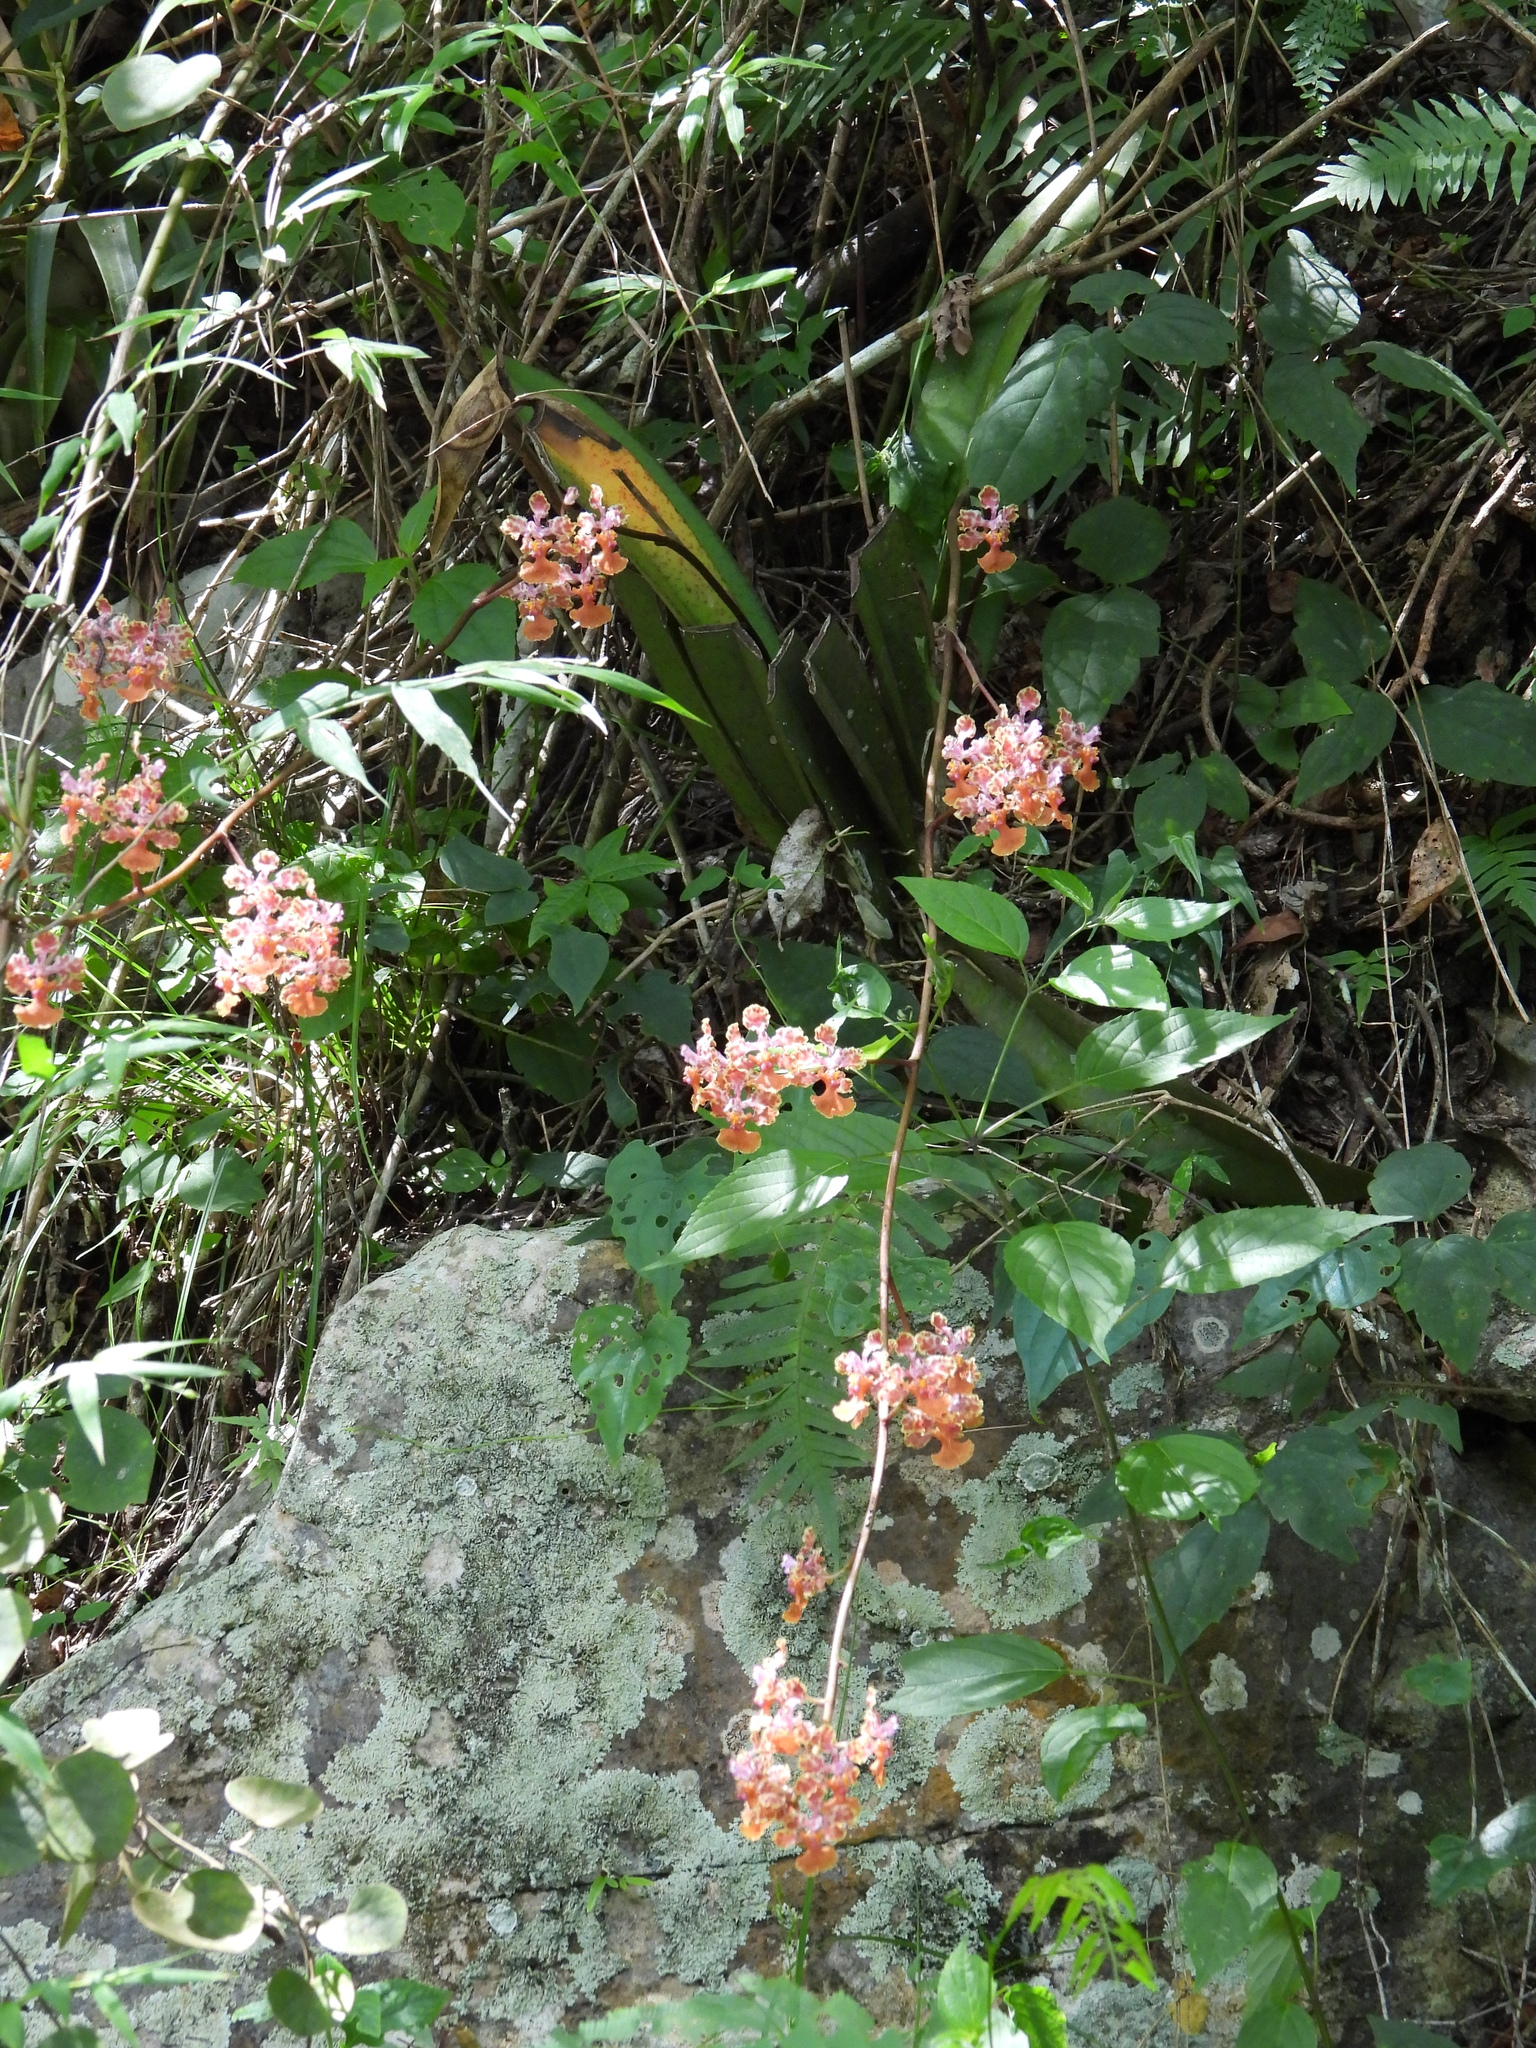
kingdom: Plantae
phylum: Tracheophyta
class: Liliopsida
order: Asparagales
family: Orchidaceae
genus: Trichocentrum
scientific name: Trichocentrum andreanum
